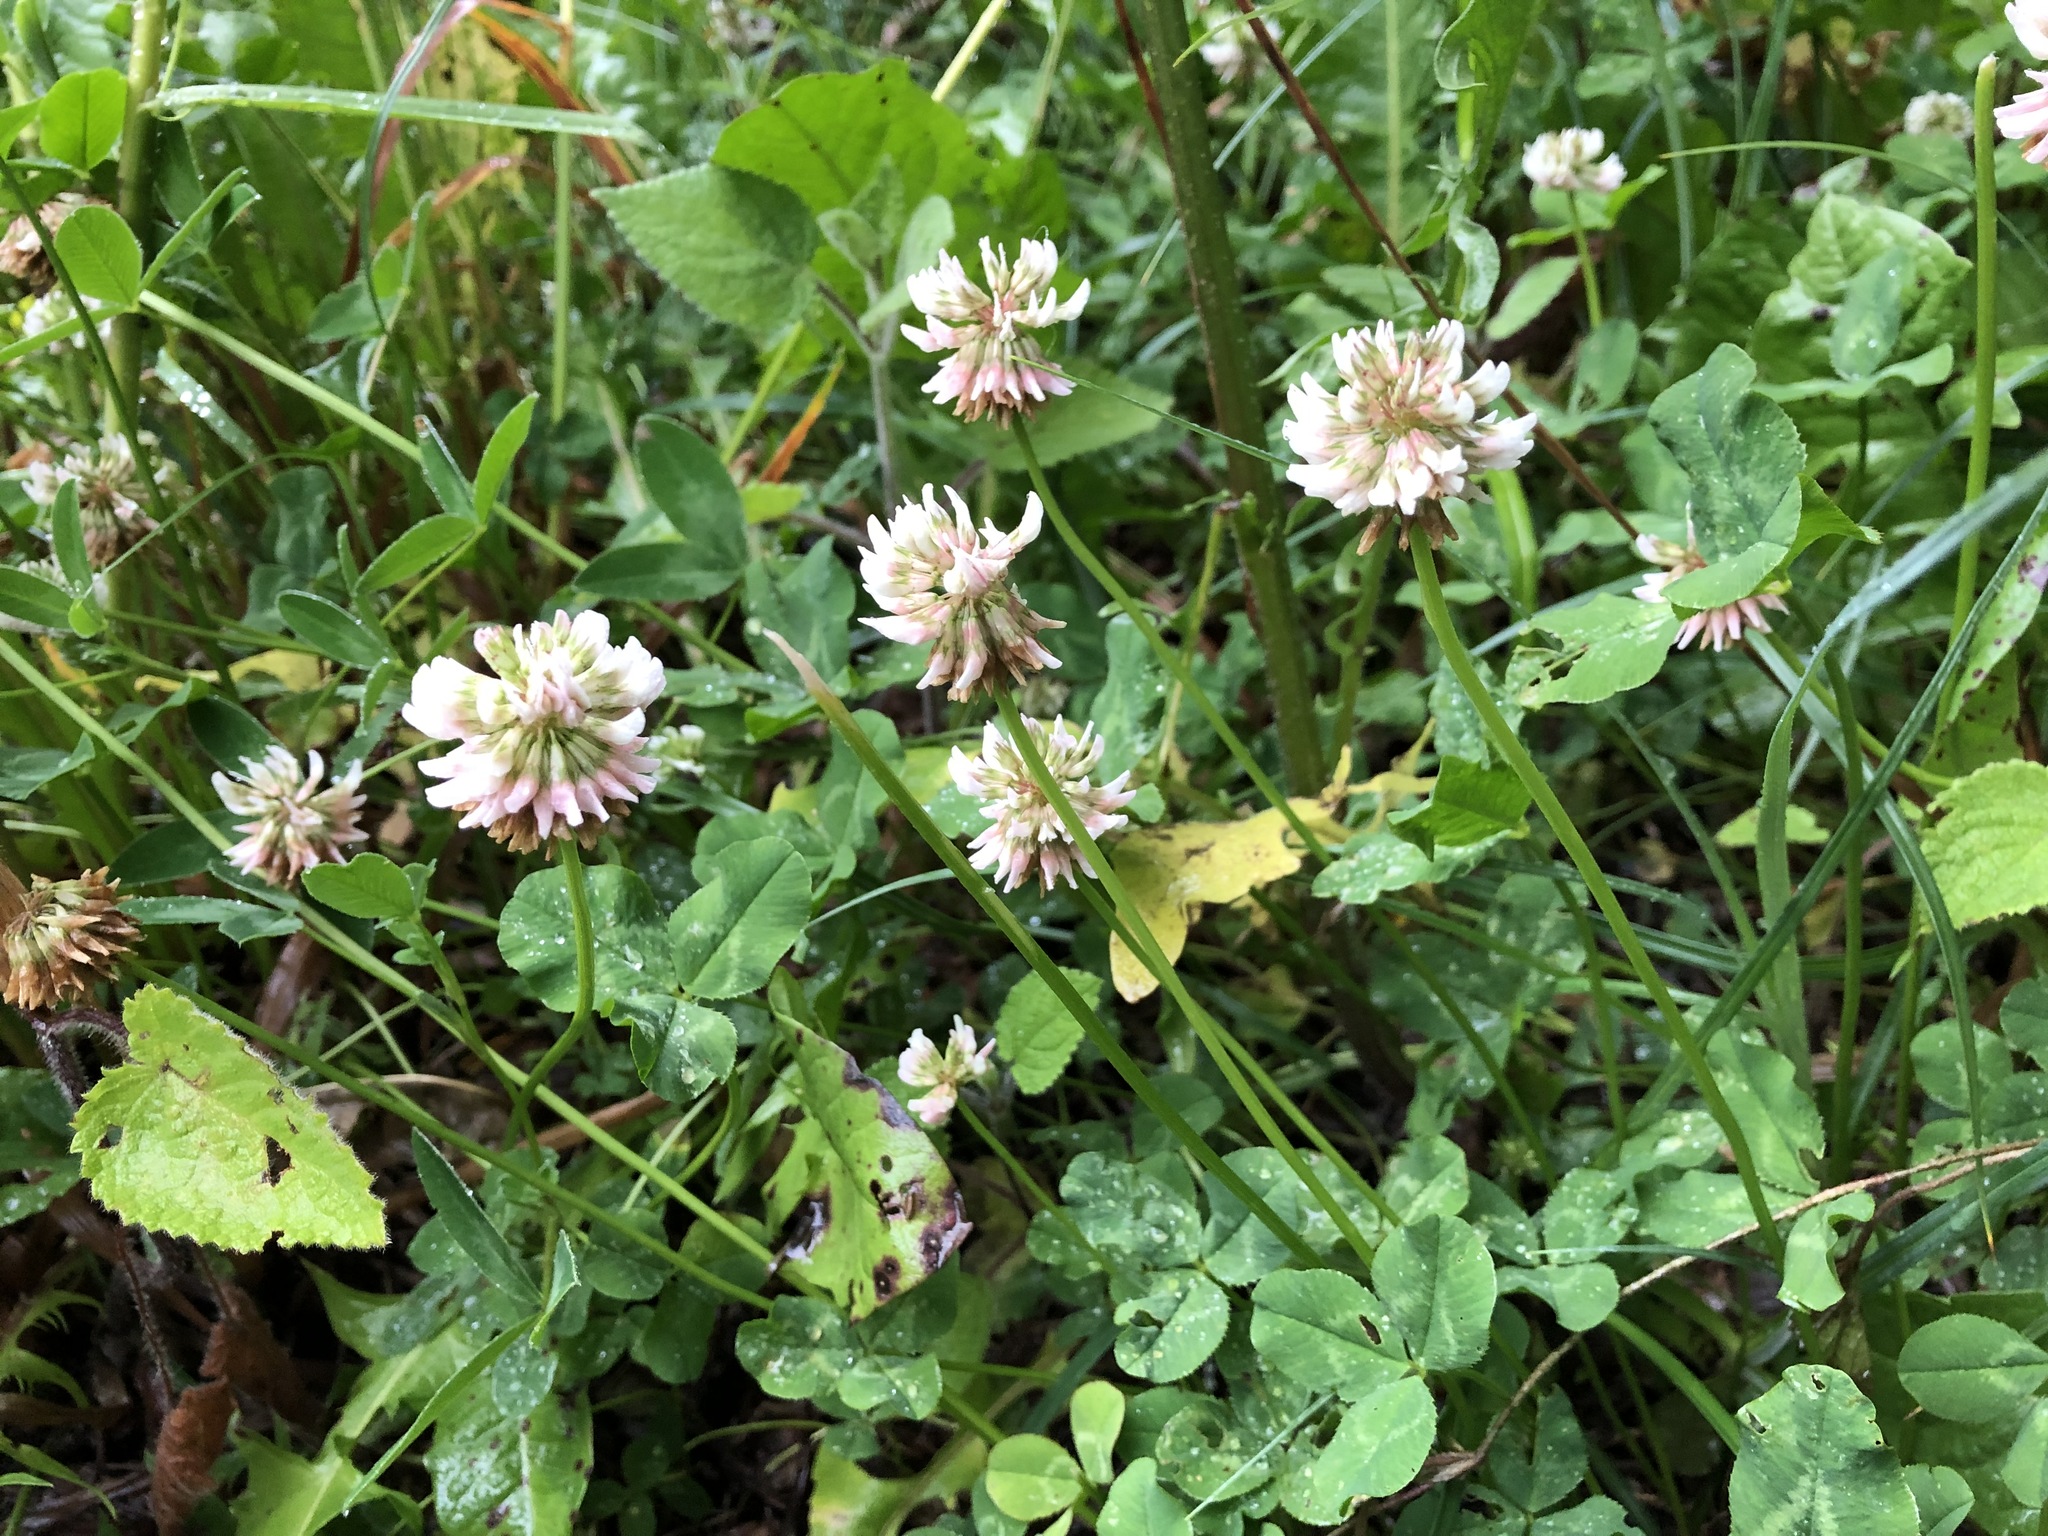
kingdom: Plantae
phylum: Tracheophyta
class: Magnoliopsida
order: Fabales
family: Fabaceae
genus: Trifolium
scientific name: Trifolium repens
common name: White clover
